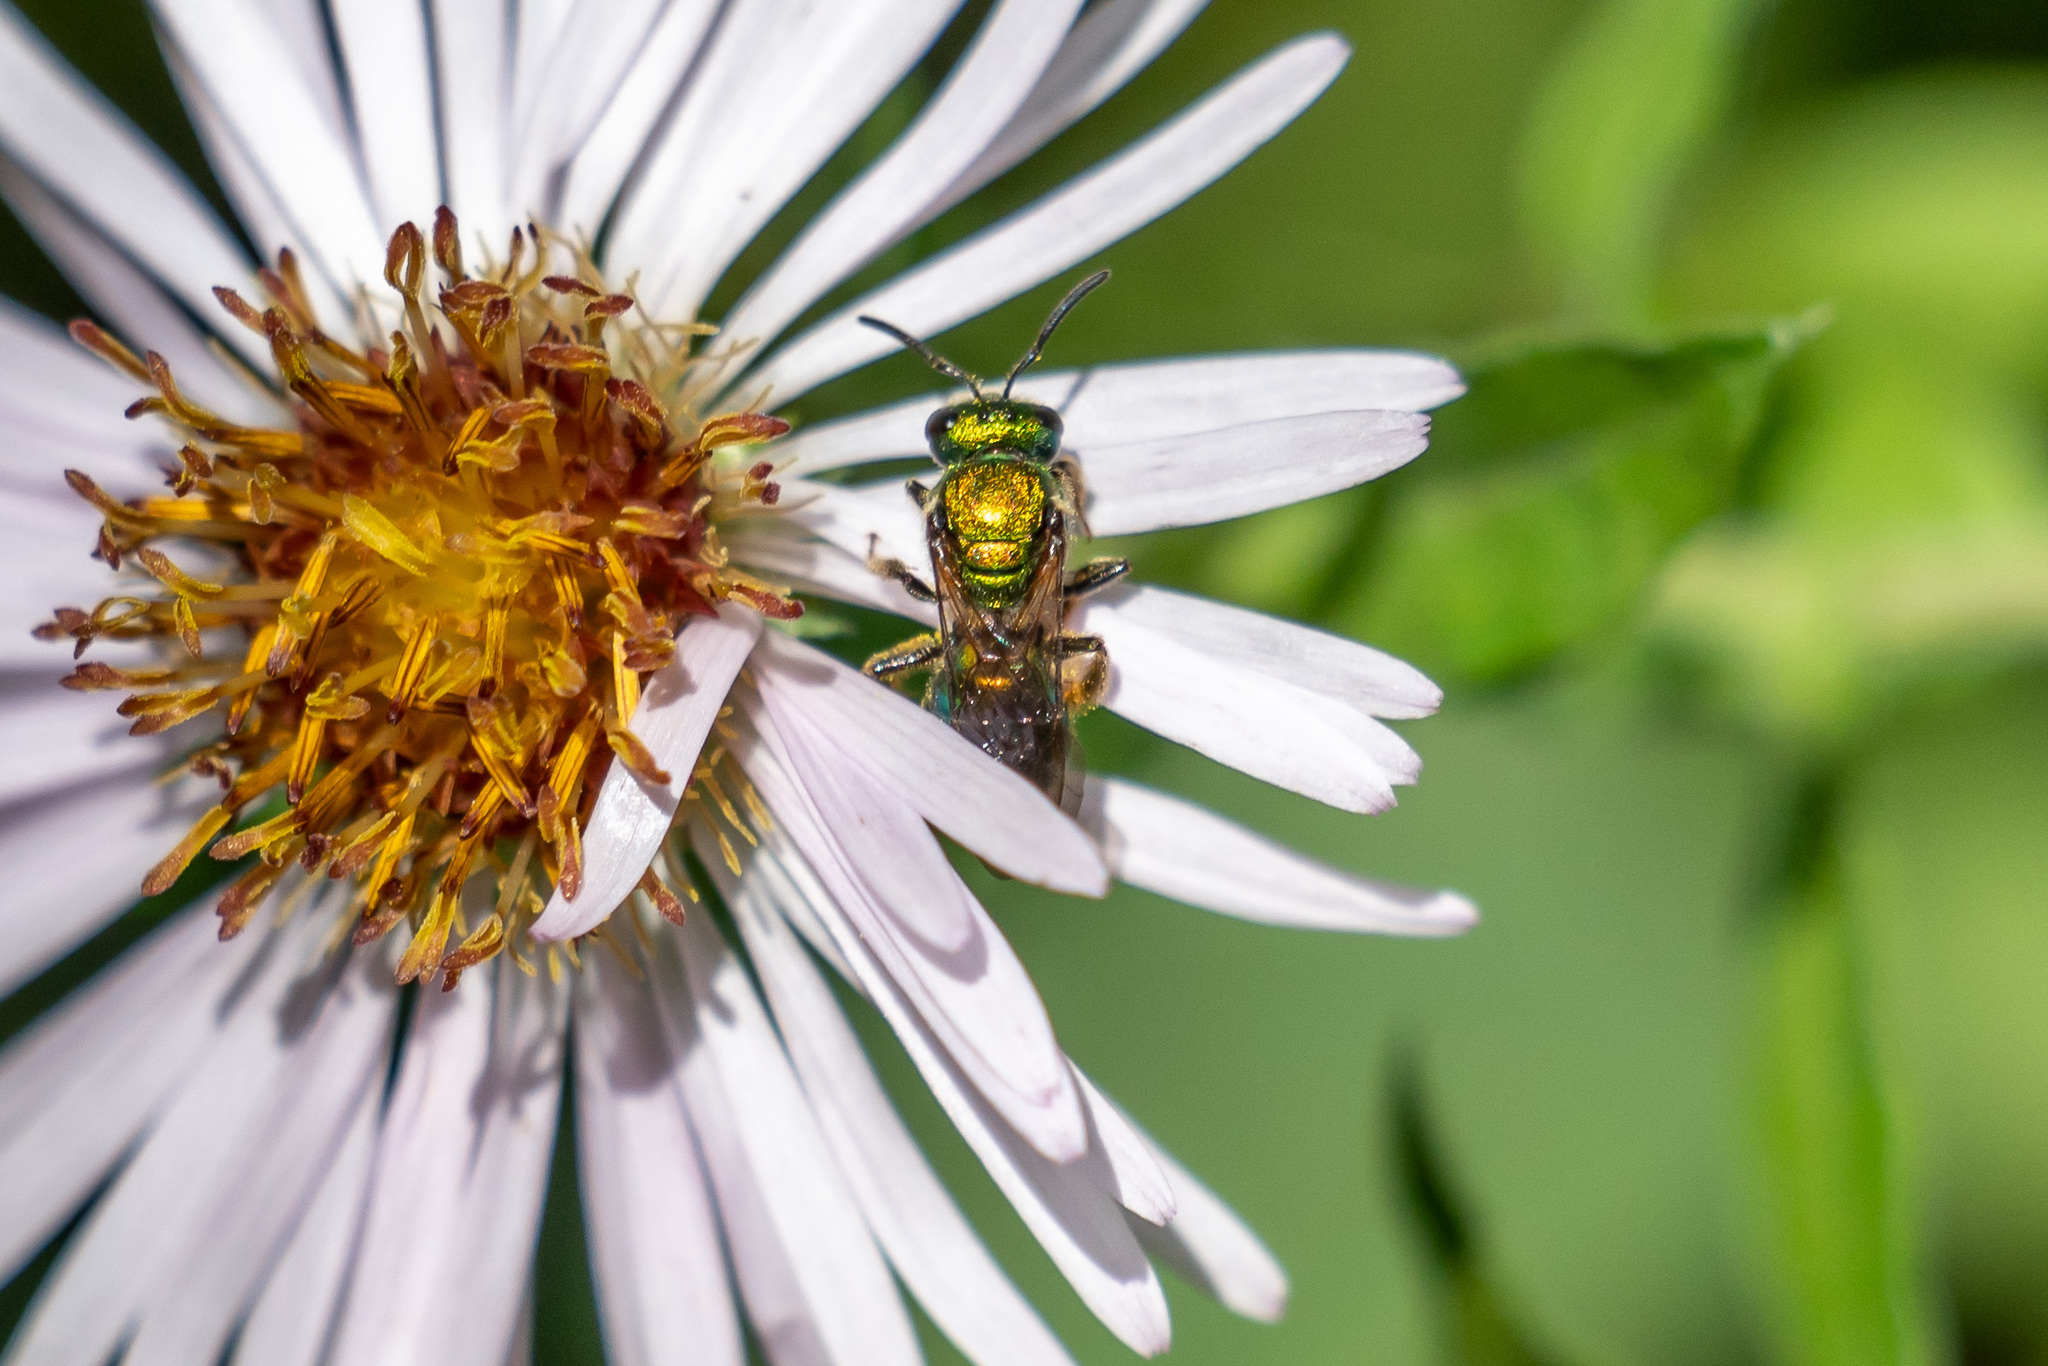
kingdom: Animalia
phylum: Arthropoda
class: Insecta
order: Hymenoptera
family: Halictidae
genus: Augochlora
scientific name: Augochlora pura
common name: Pure green sweat bee
